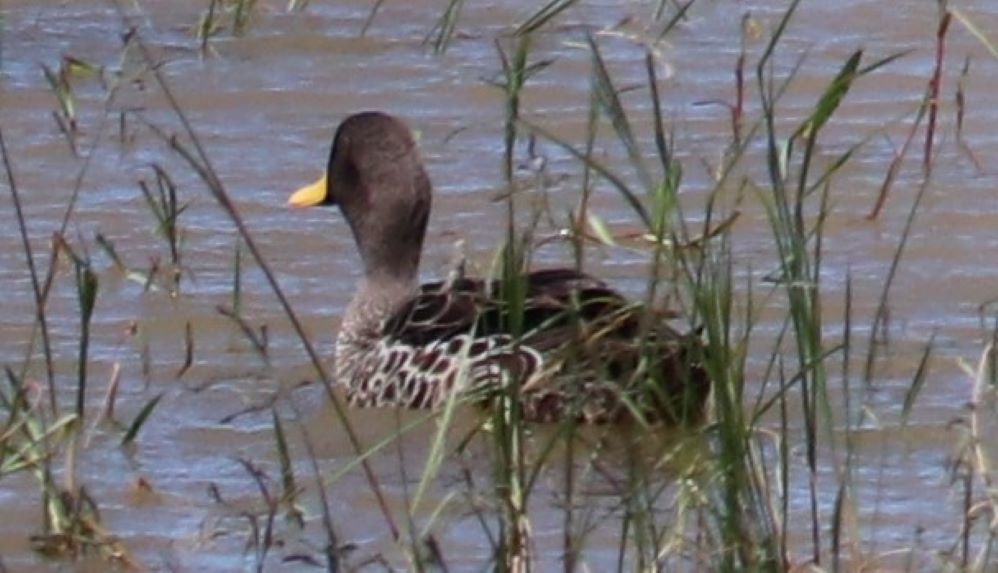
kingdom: Animalia
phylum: Chordata
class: Aves
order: Anseriformes
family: Anatidae
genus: Anas
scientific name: Anas undulata
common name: Yellow-billed duck
